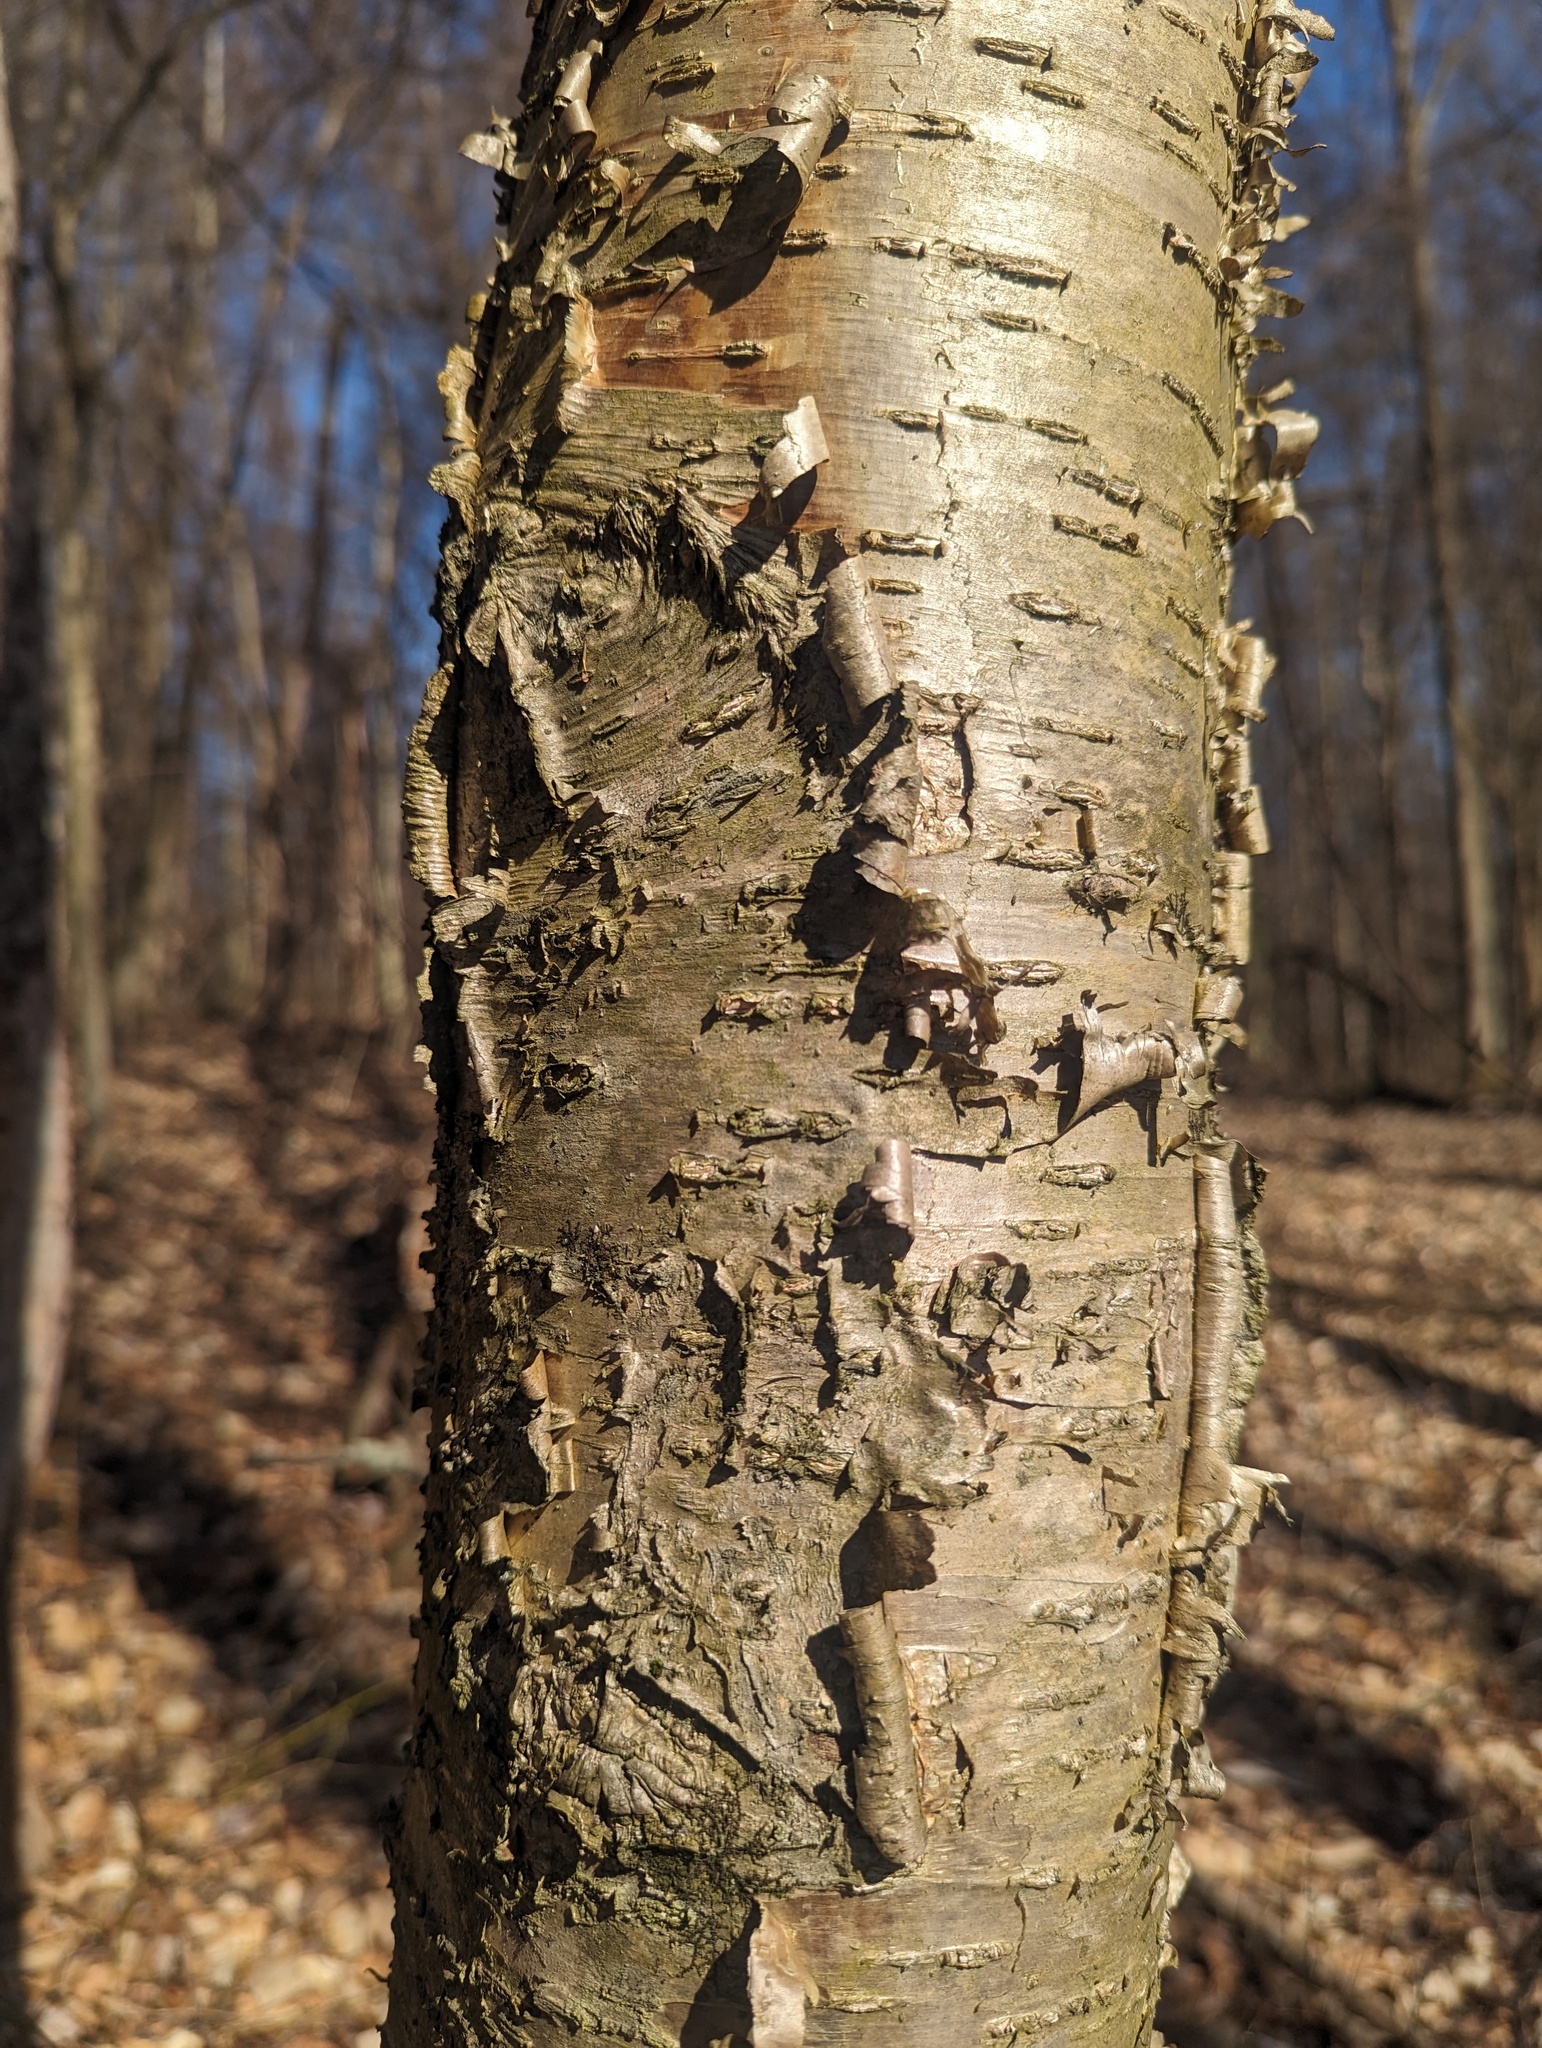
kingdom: Plantae
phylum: Tracheophyta
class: Magnoliopsida
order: Fagales
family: Betulaceae
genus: Betula
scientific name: Betula alleghaniensis
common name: Yellow birch
